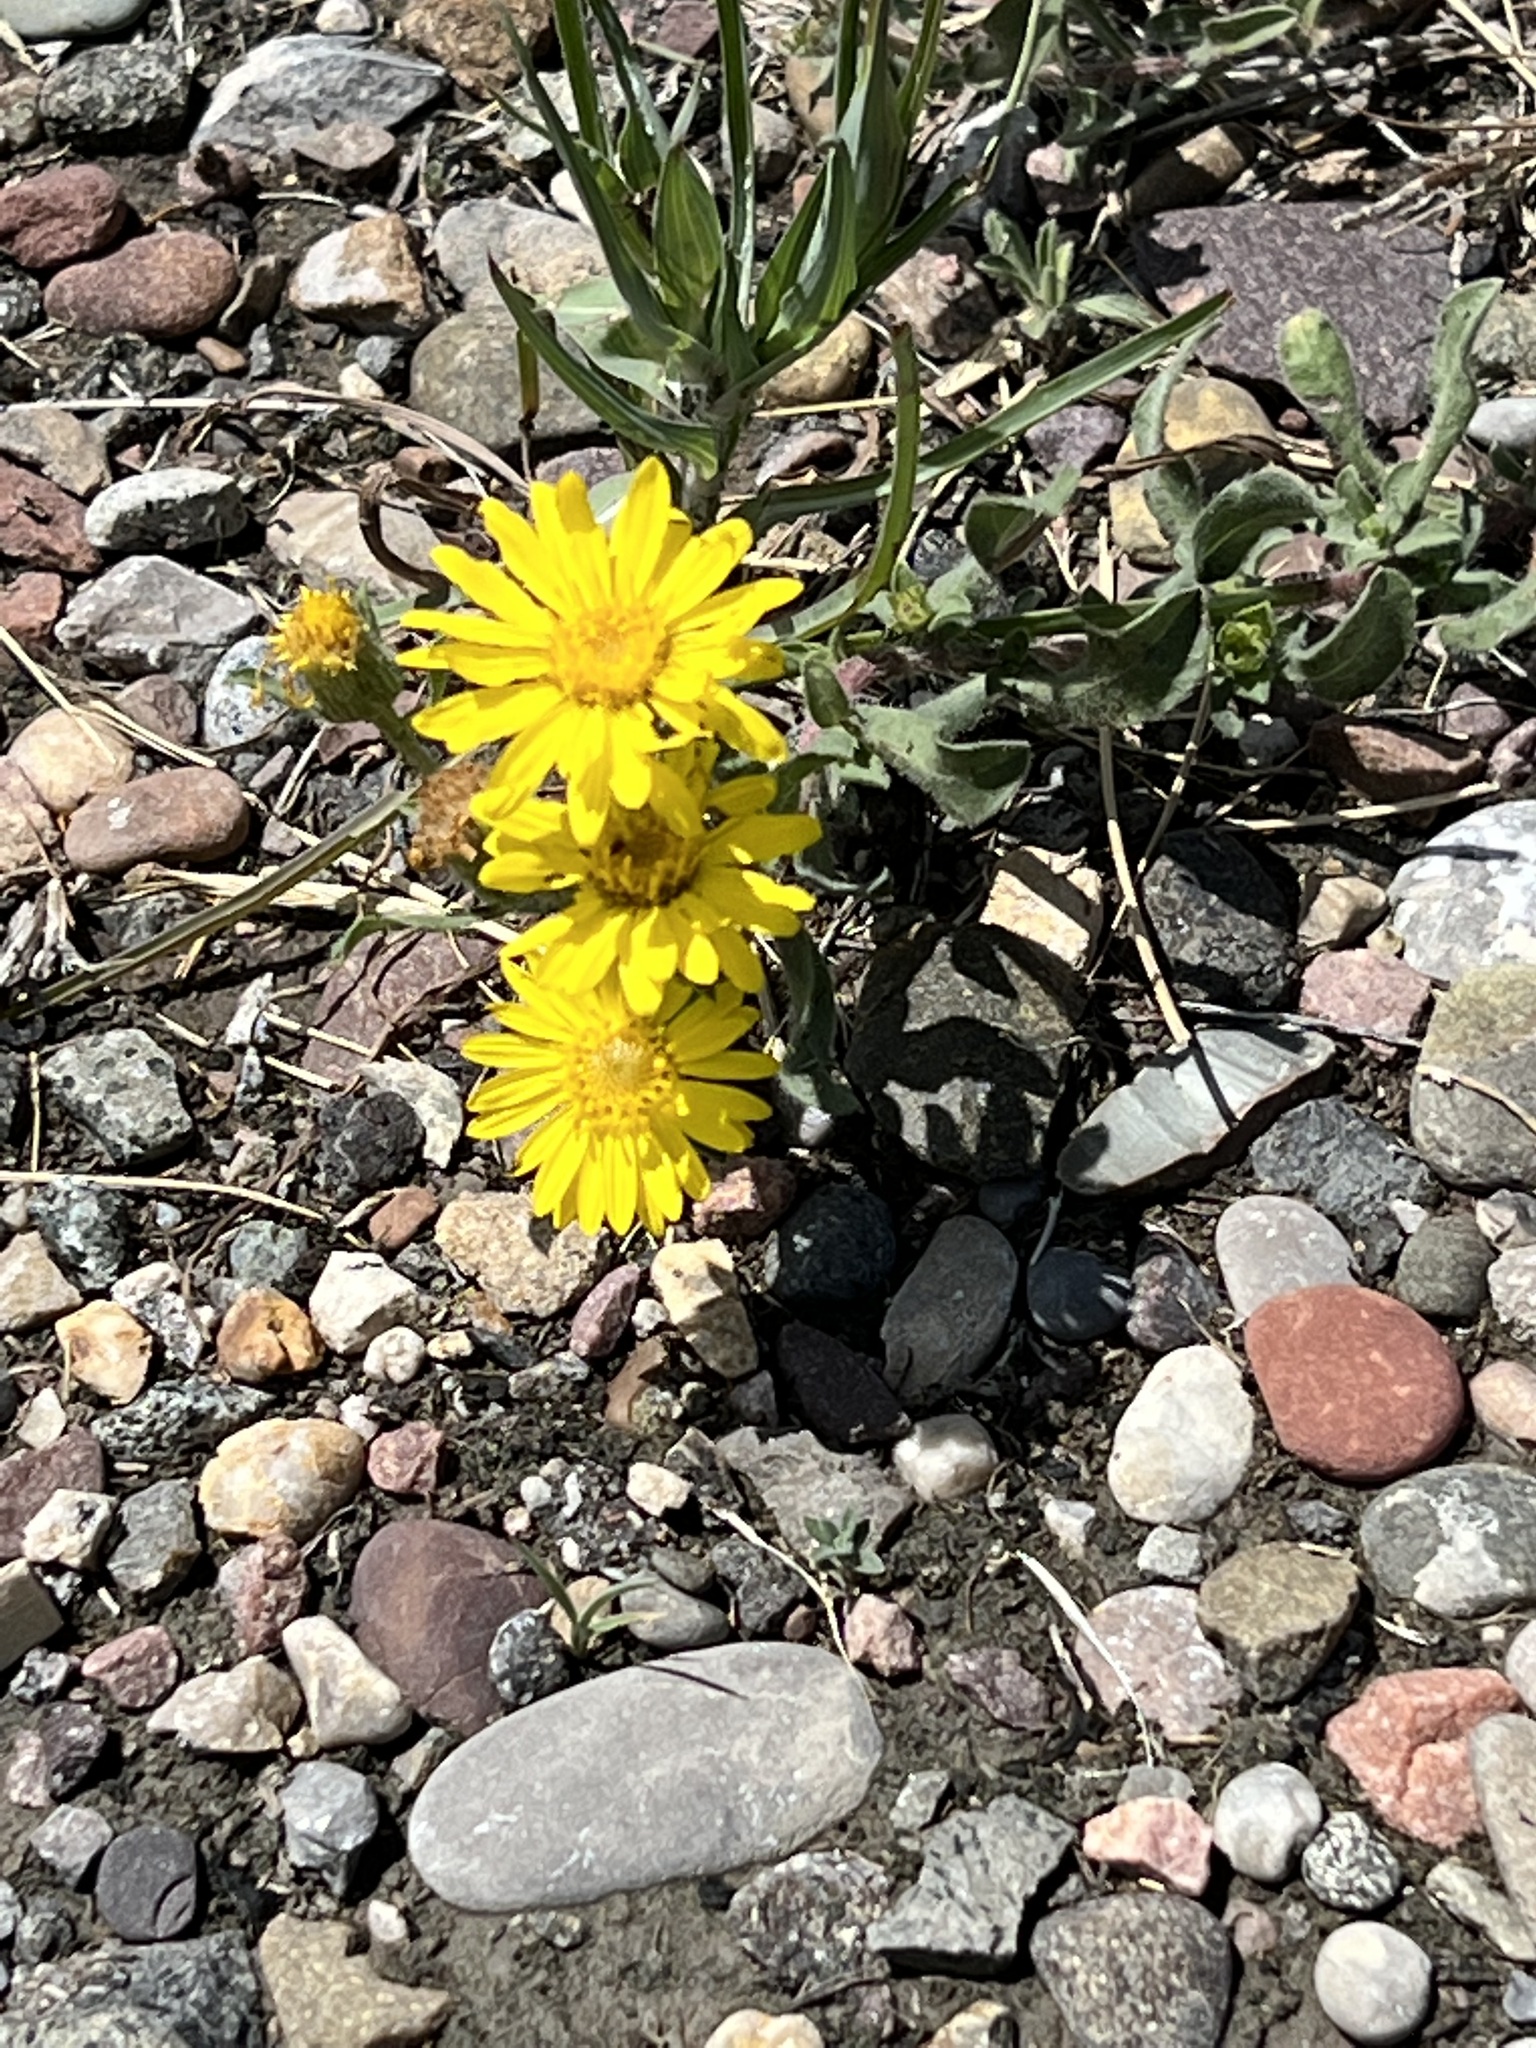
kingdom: Plantae
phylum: Tracheophyta
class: Magnoliopsida
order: Asterales
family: Asteraceae
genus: Heterotheca
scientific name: Heterotheca villosa
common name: Hairy false goldenaster
